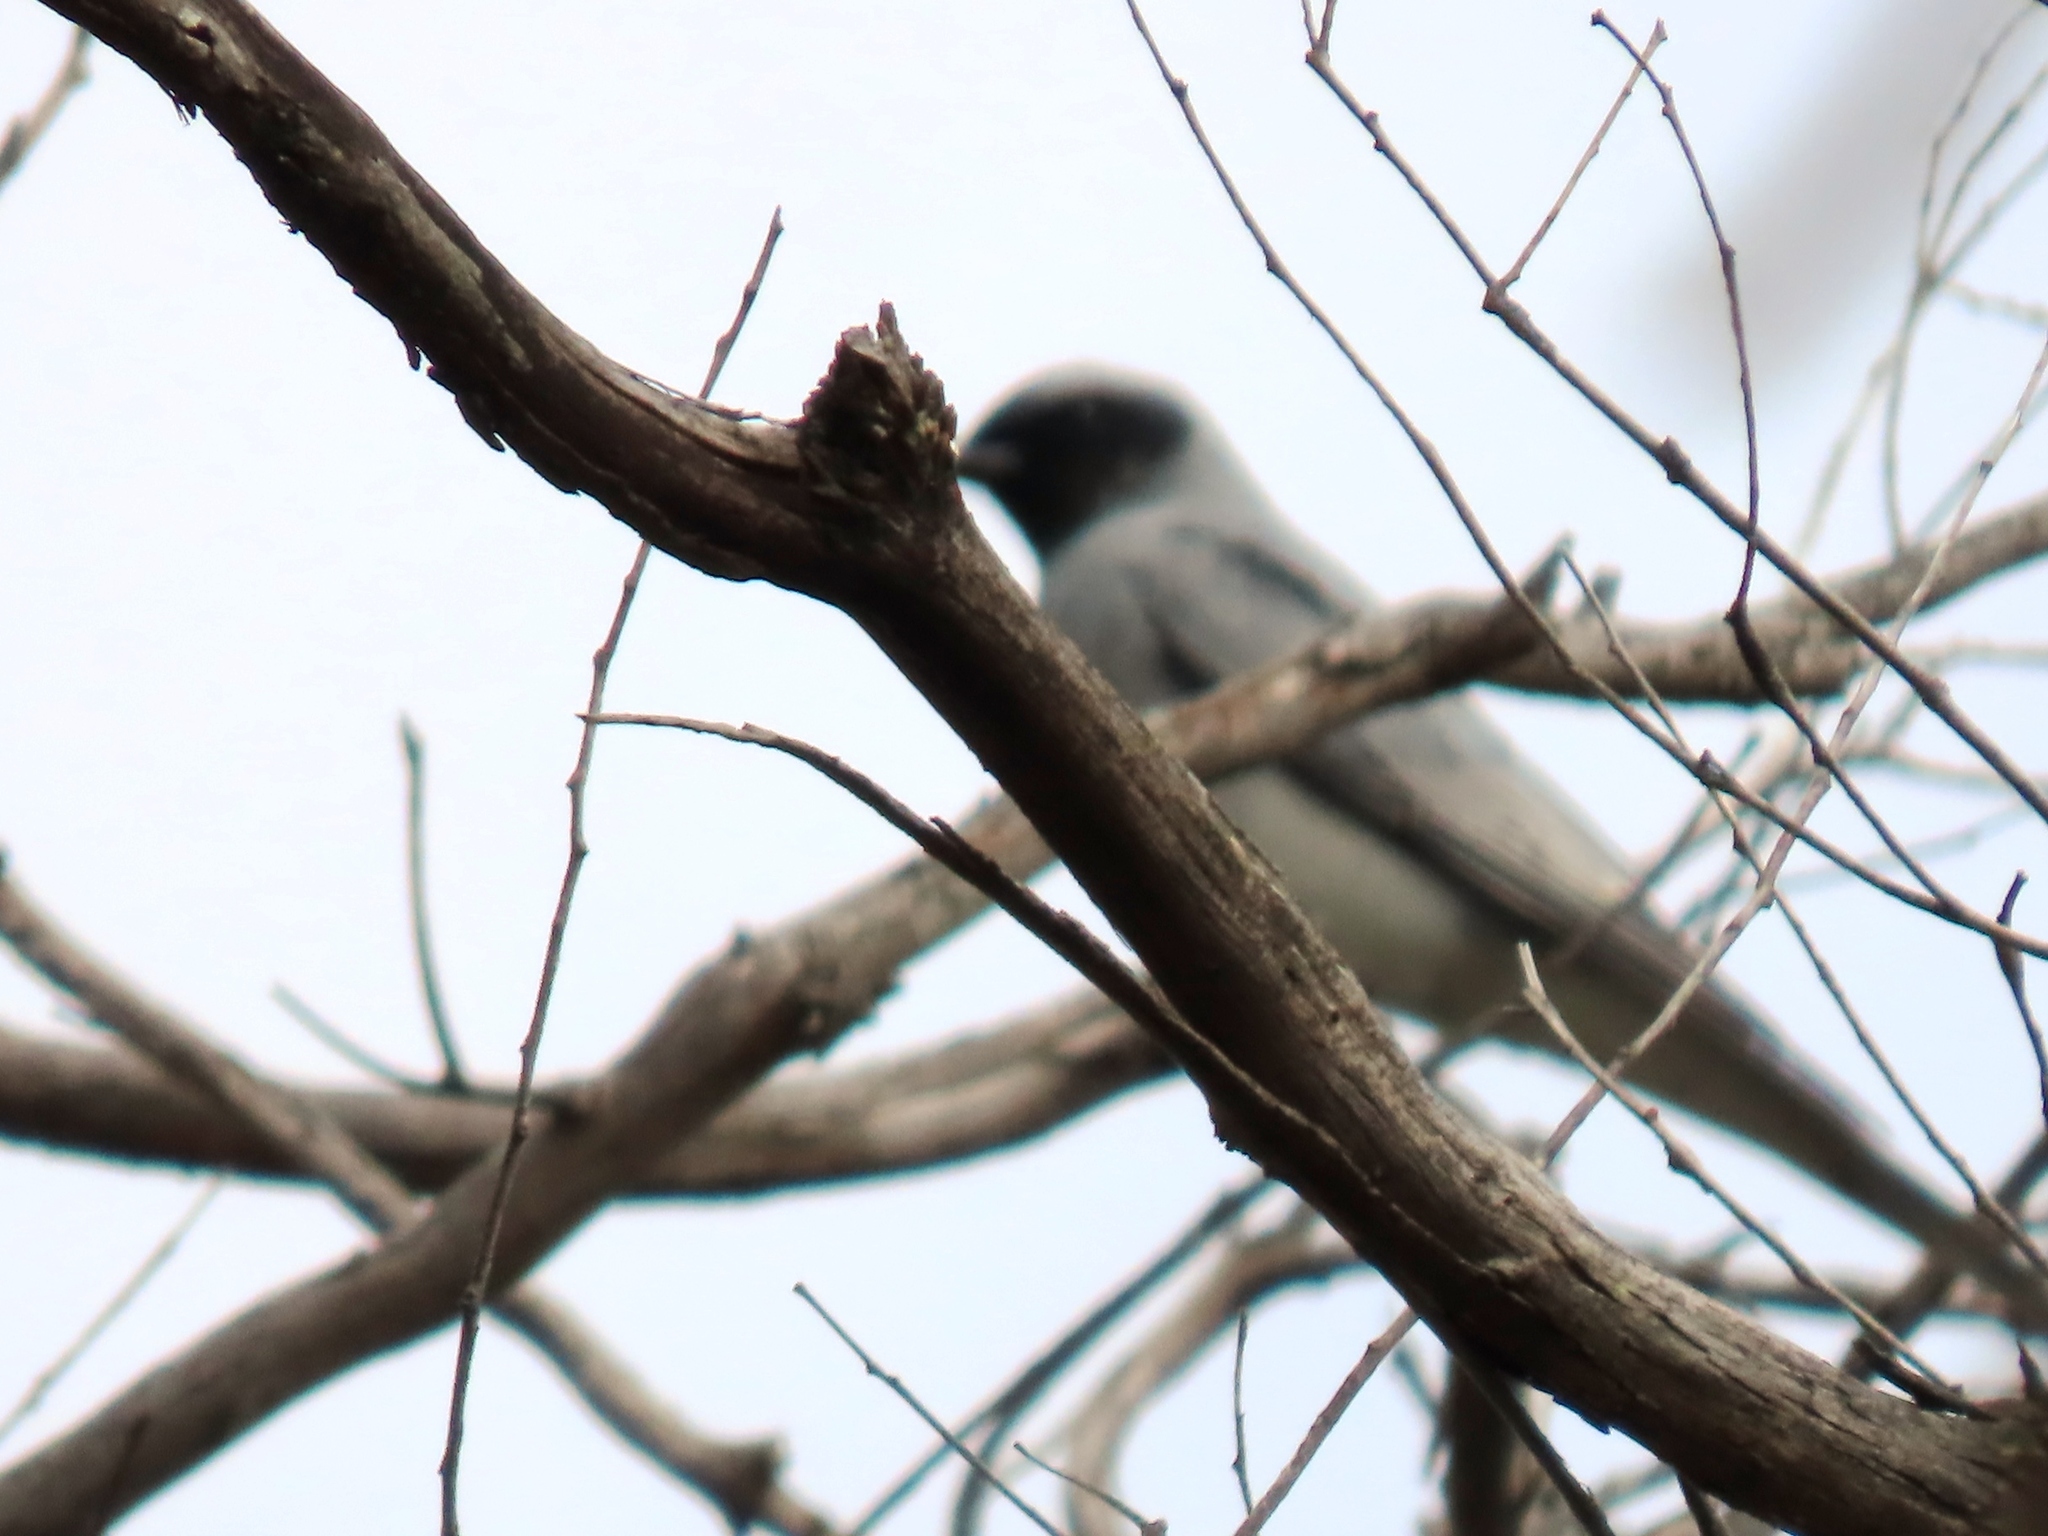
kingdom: Animalia
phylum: Chordata
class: Aves
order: Passeriformes
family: Campephagidae
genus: Coracina
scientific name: Coracina novaehollandiae
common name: Black-faced cuckooshrike
